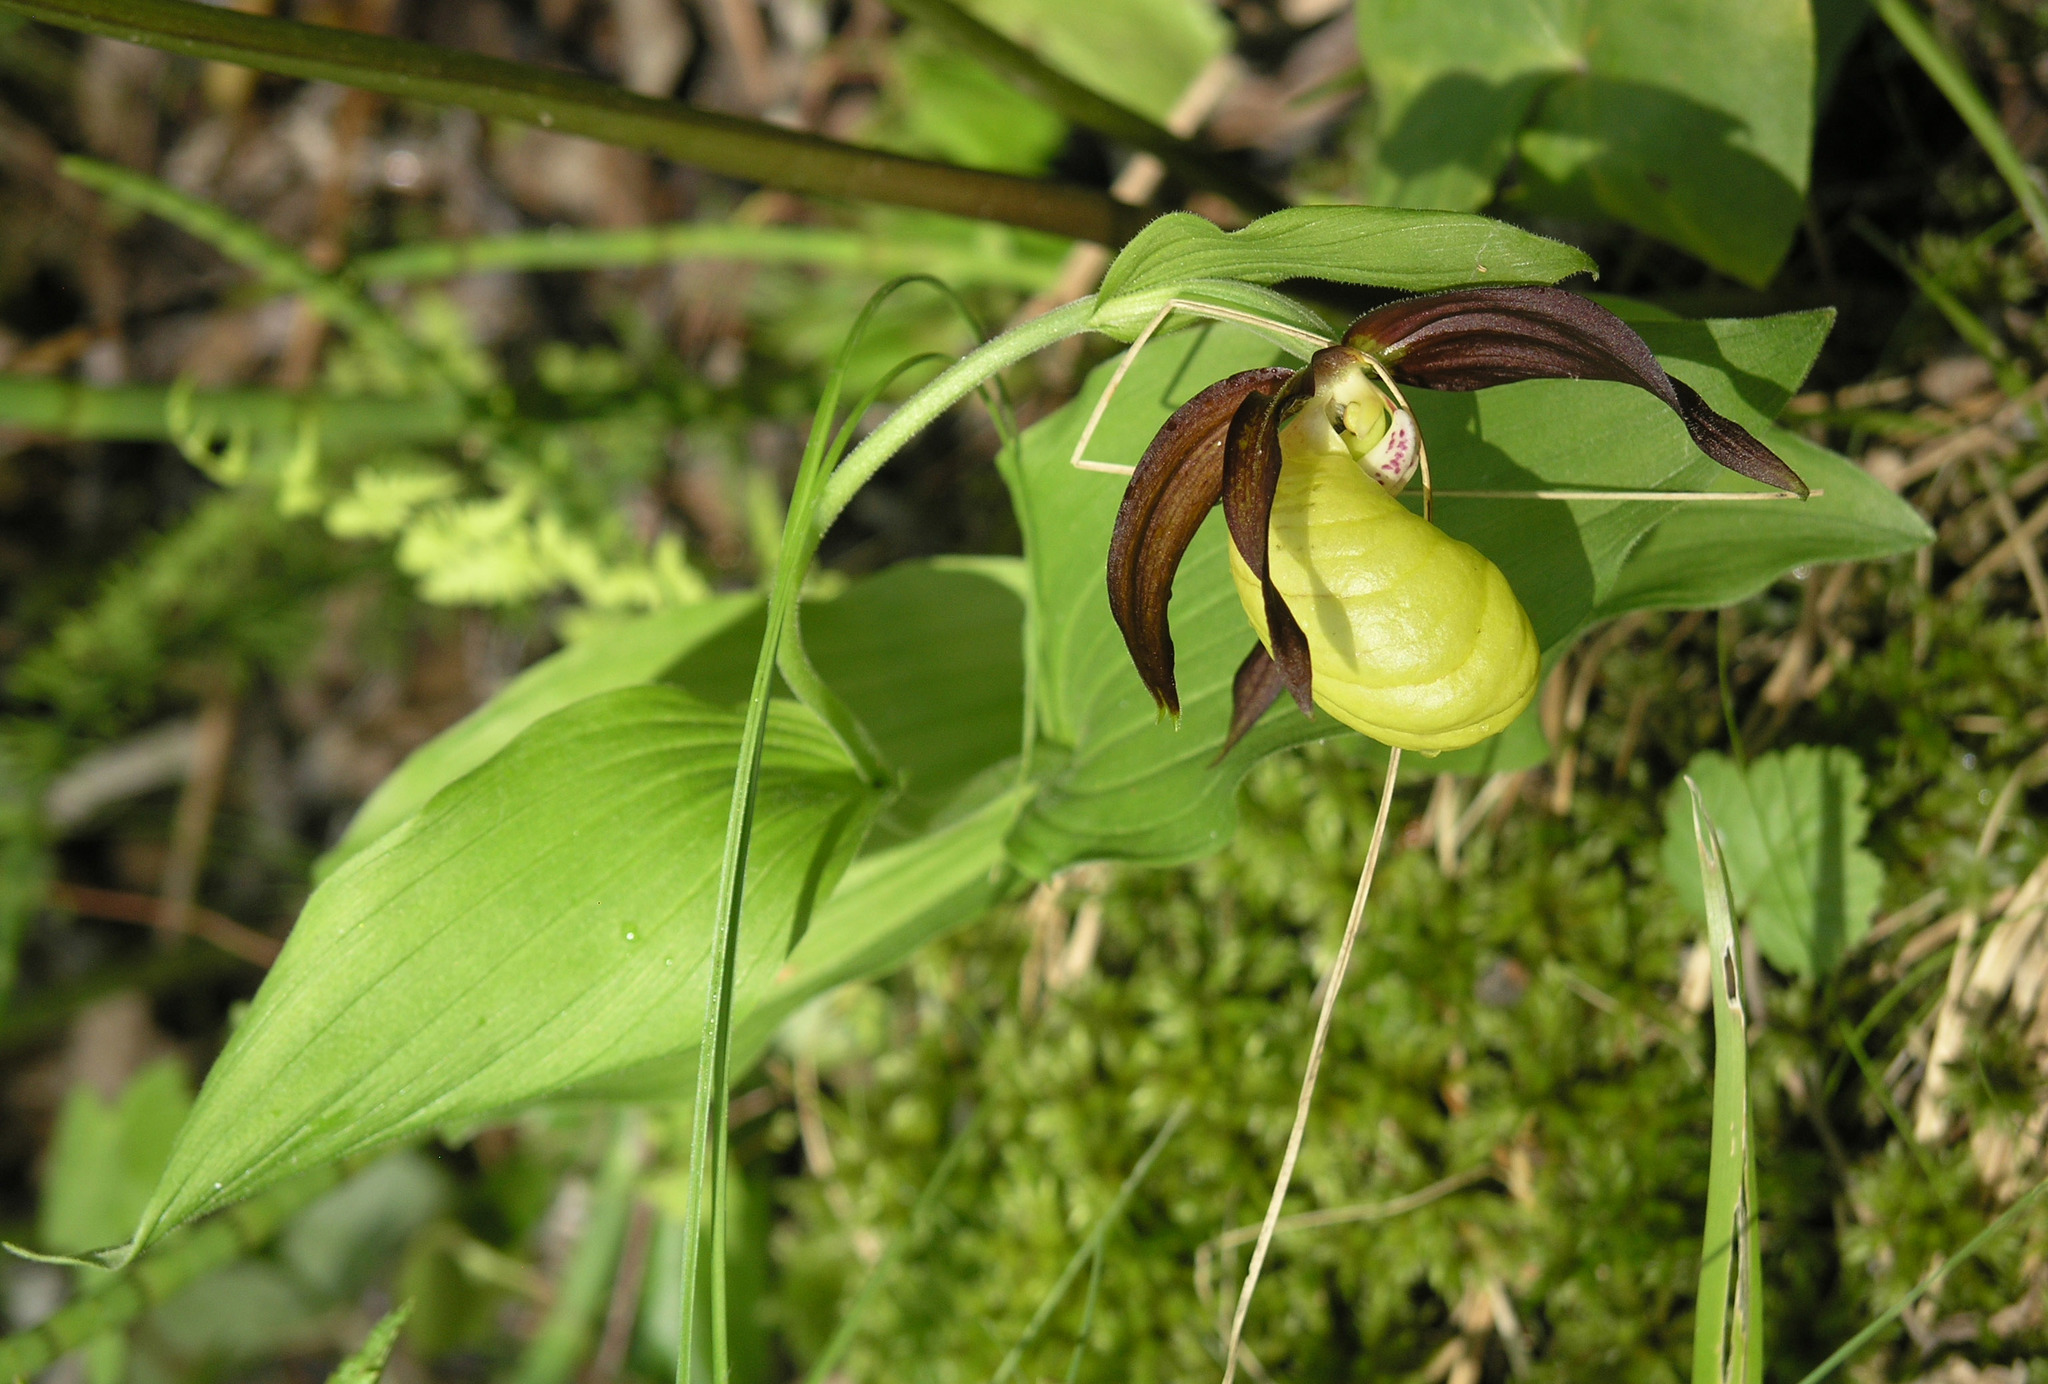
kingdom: Plantae
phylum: Tracheophyta
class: Liliopsida
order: Asparagales
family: Orchidaceae
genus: Cypripedium
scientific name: Cypripedium calceolus
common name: Lady's-slipper
